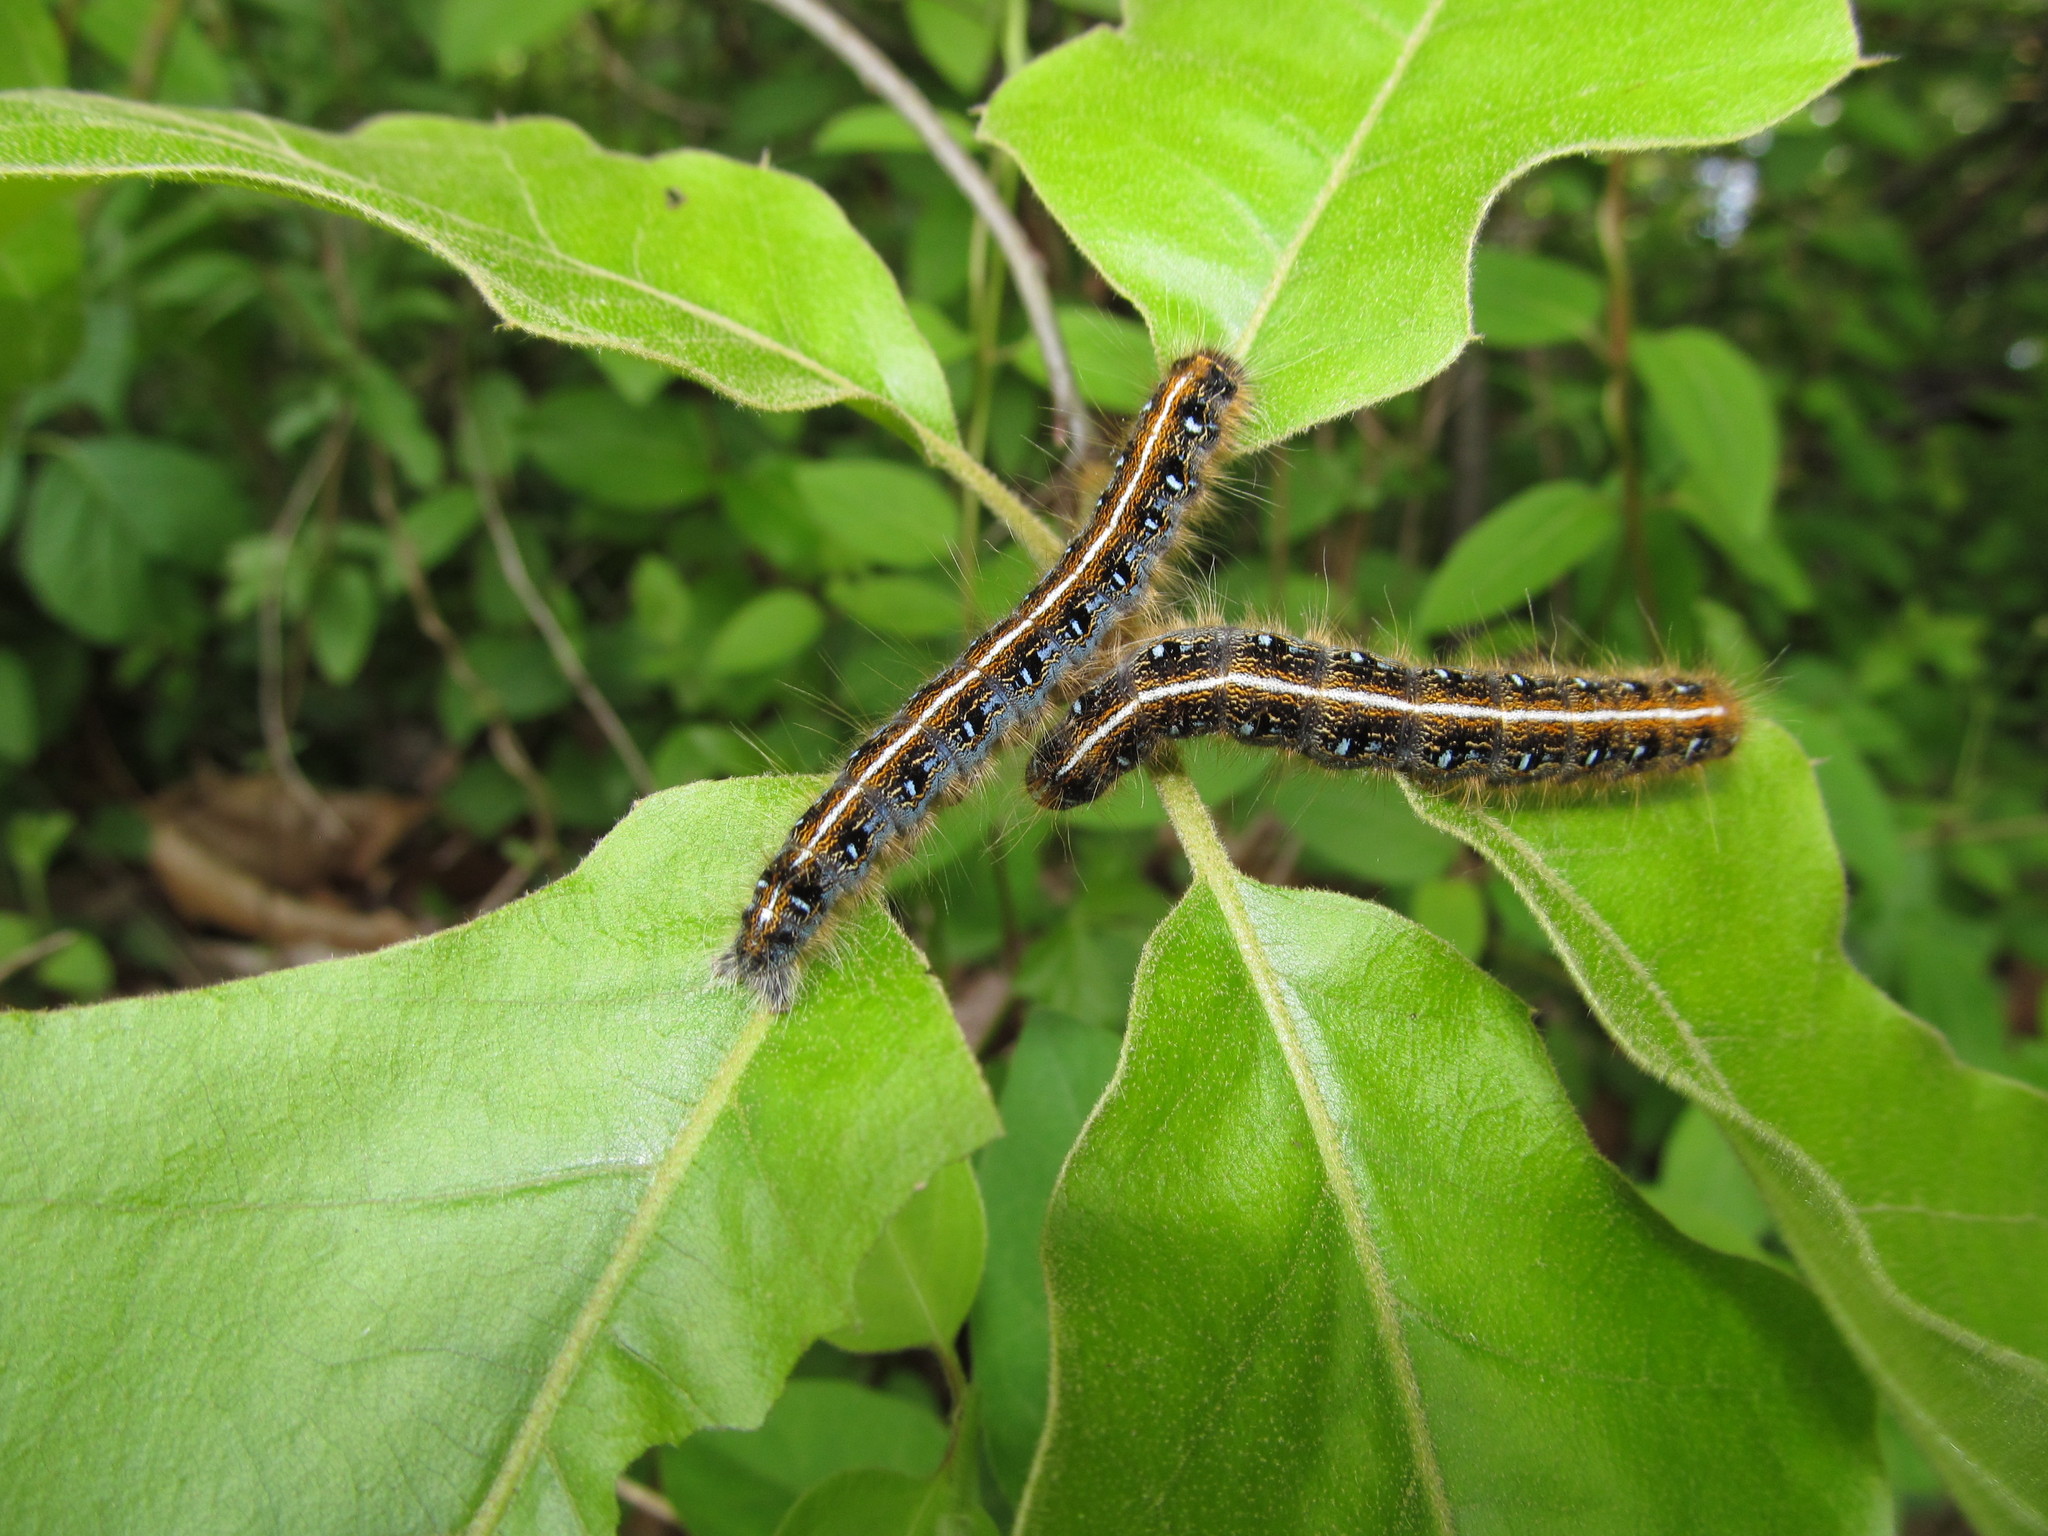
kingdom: Animalia
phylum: Arthropoda
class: Insecta
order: Lepidoptera
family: Lasiocampidae
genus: Malacosoma
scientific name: Malacosoma americana
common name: Eastern tent caterpillar moth
